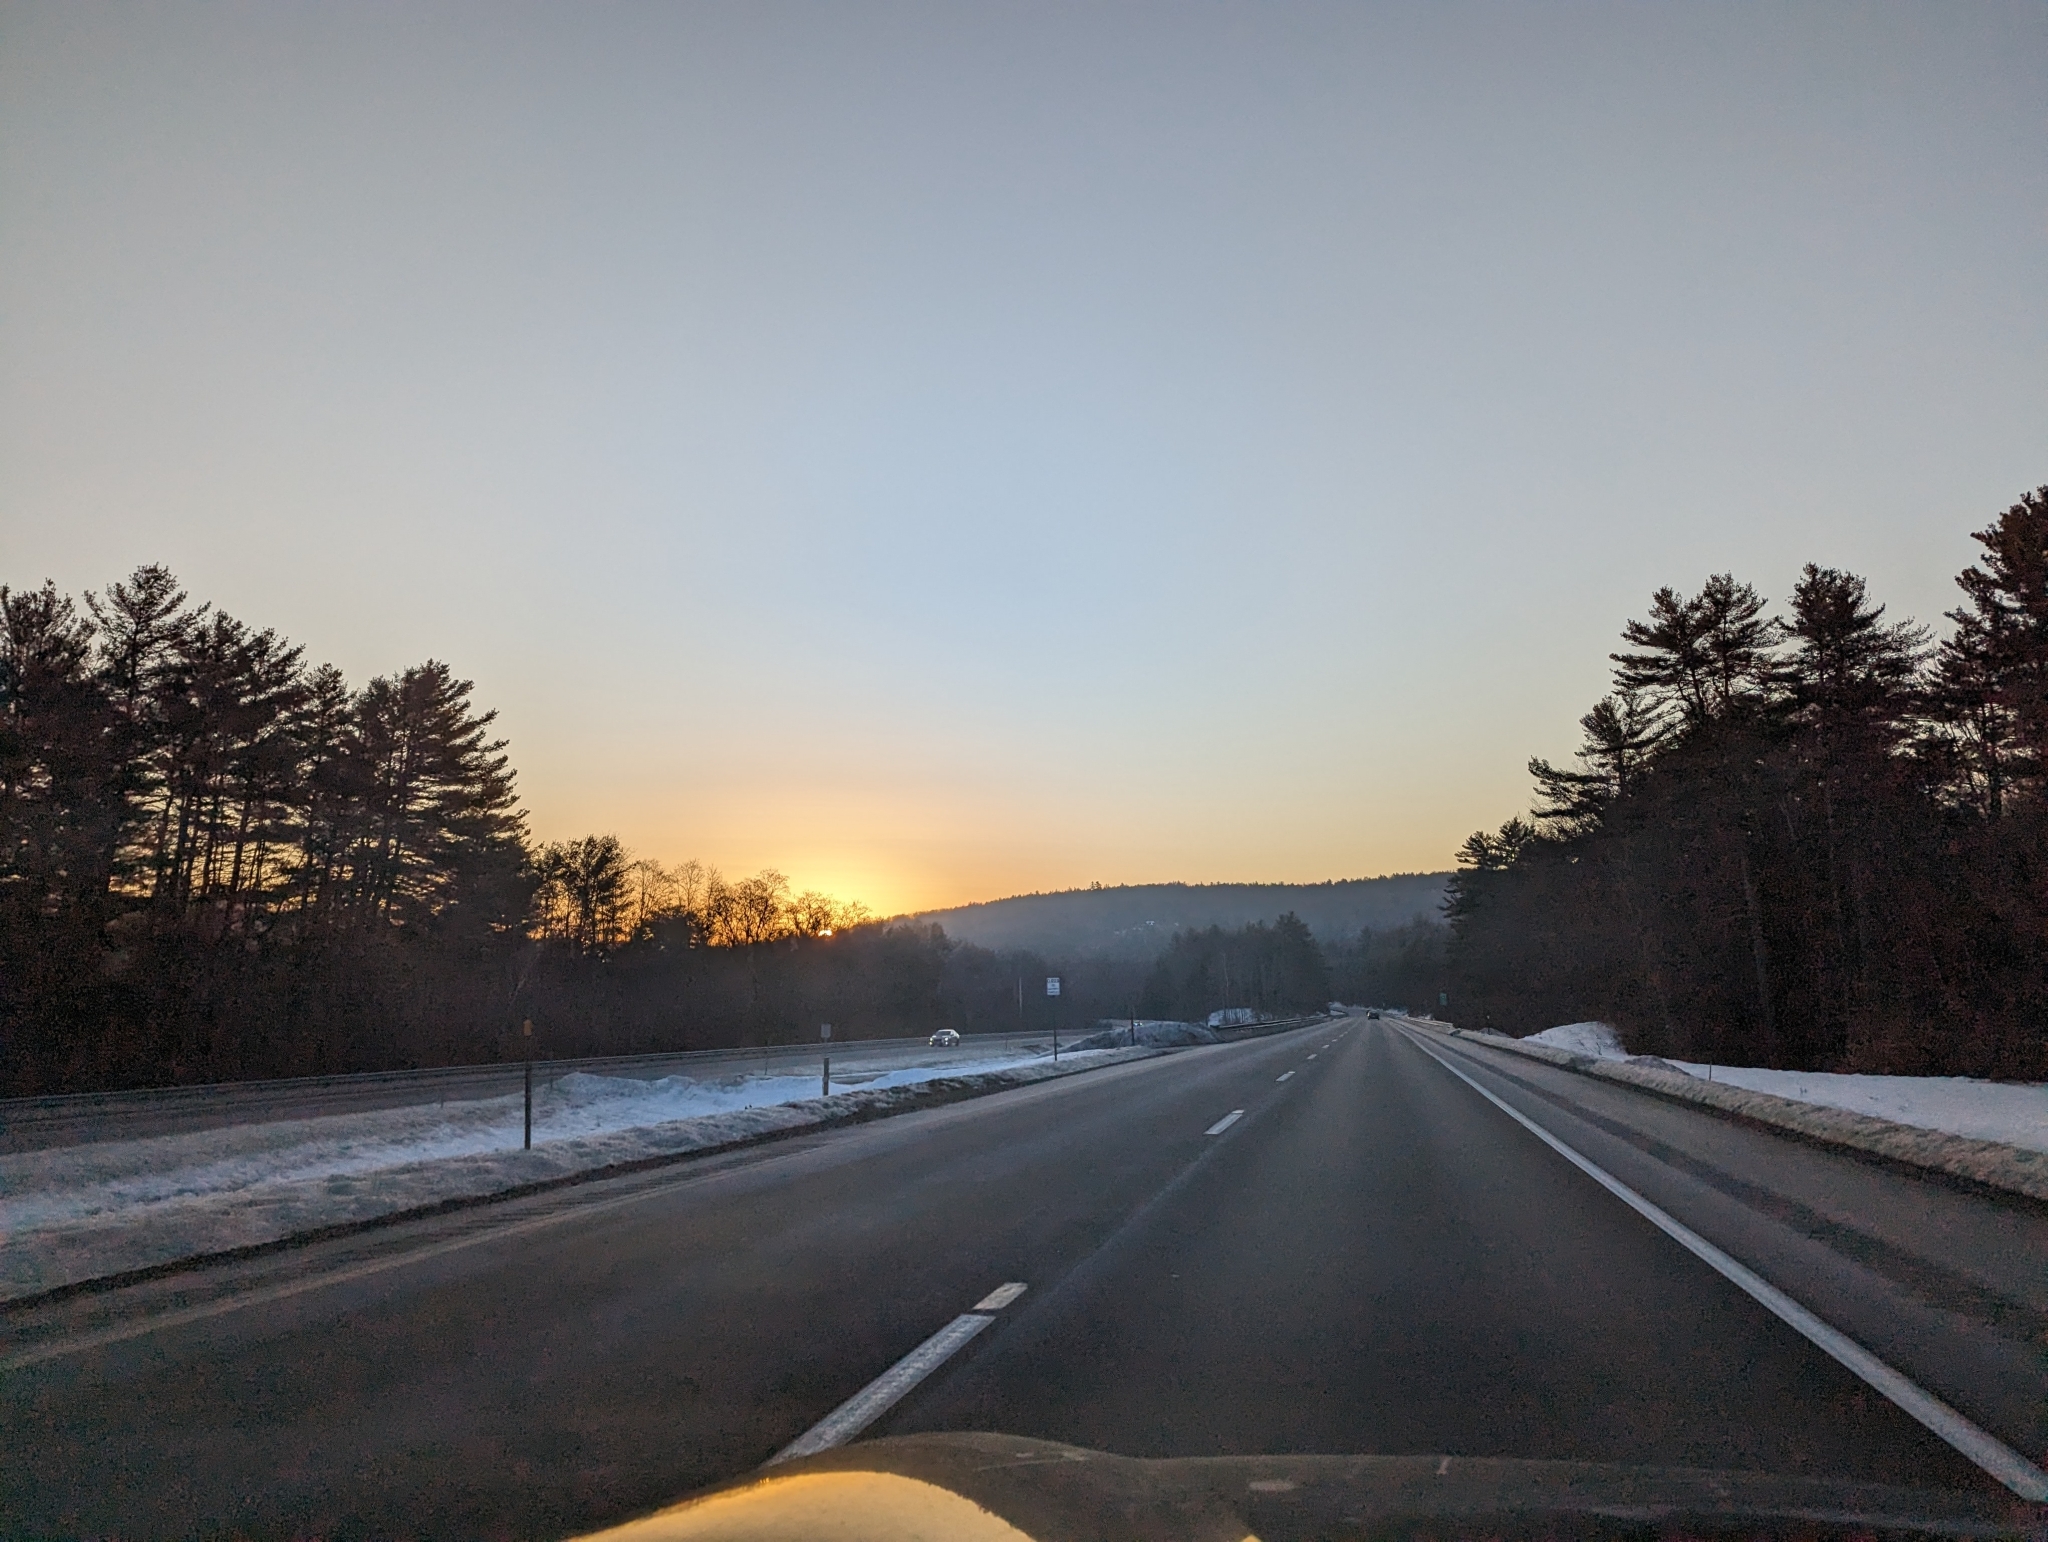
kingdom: Plantae
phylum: Tracheophyta
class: Pinopsida
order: Pinales
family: Pinaceae
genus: Pinus
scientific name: Pinus strobus
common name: Weymouth pine
